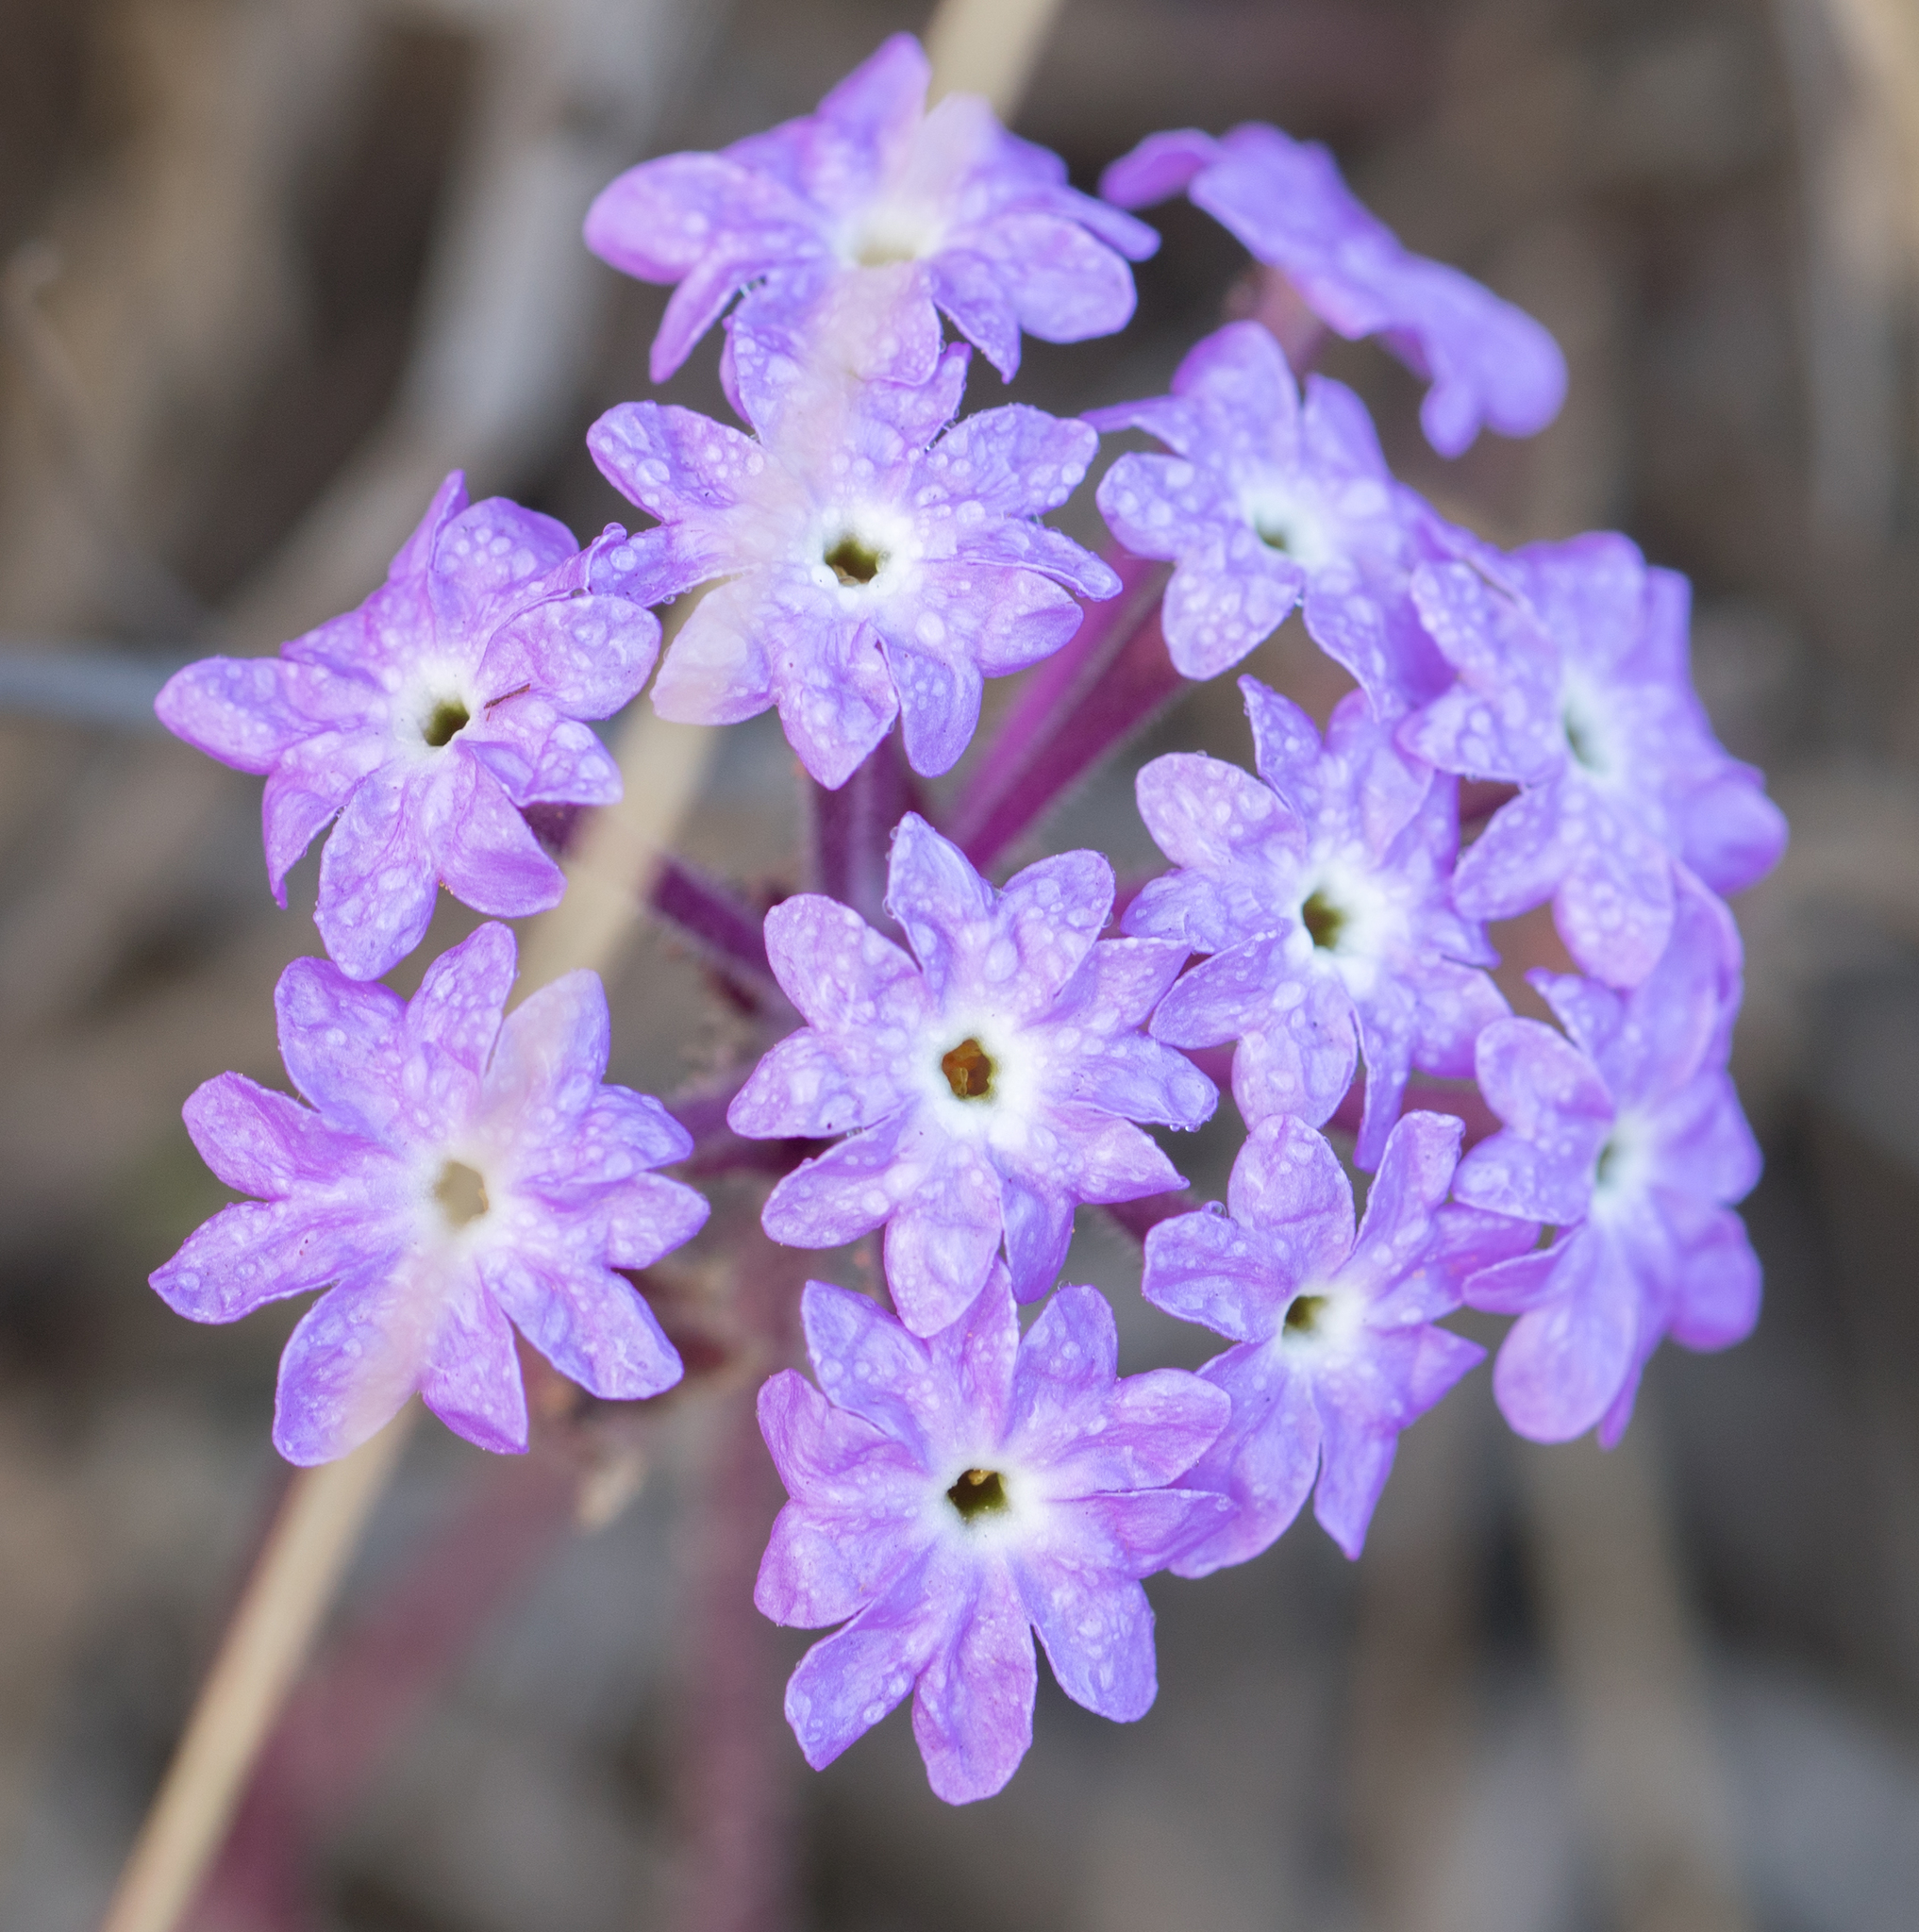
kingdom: Plantae
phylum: Tracheophyta
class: Magnoliopsida
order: Caryophyllales
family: Nyctaginaceae
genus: Abronia
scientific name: Abronia umbellata
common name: Sand-verbena
